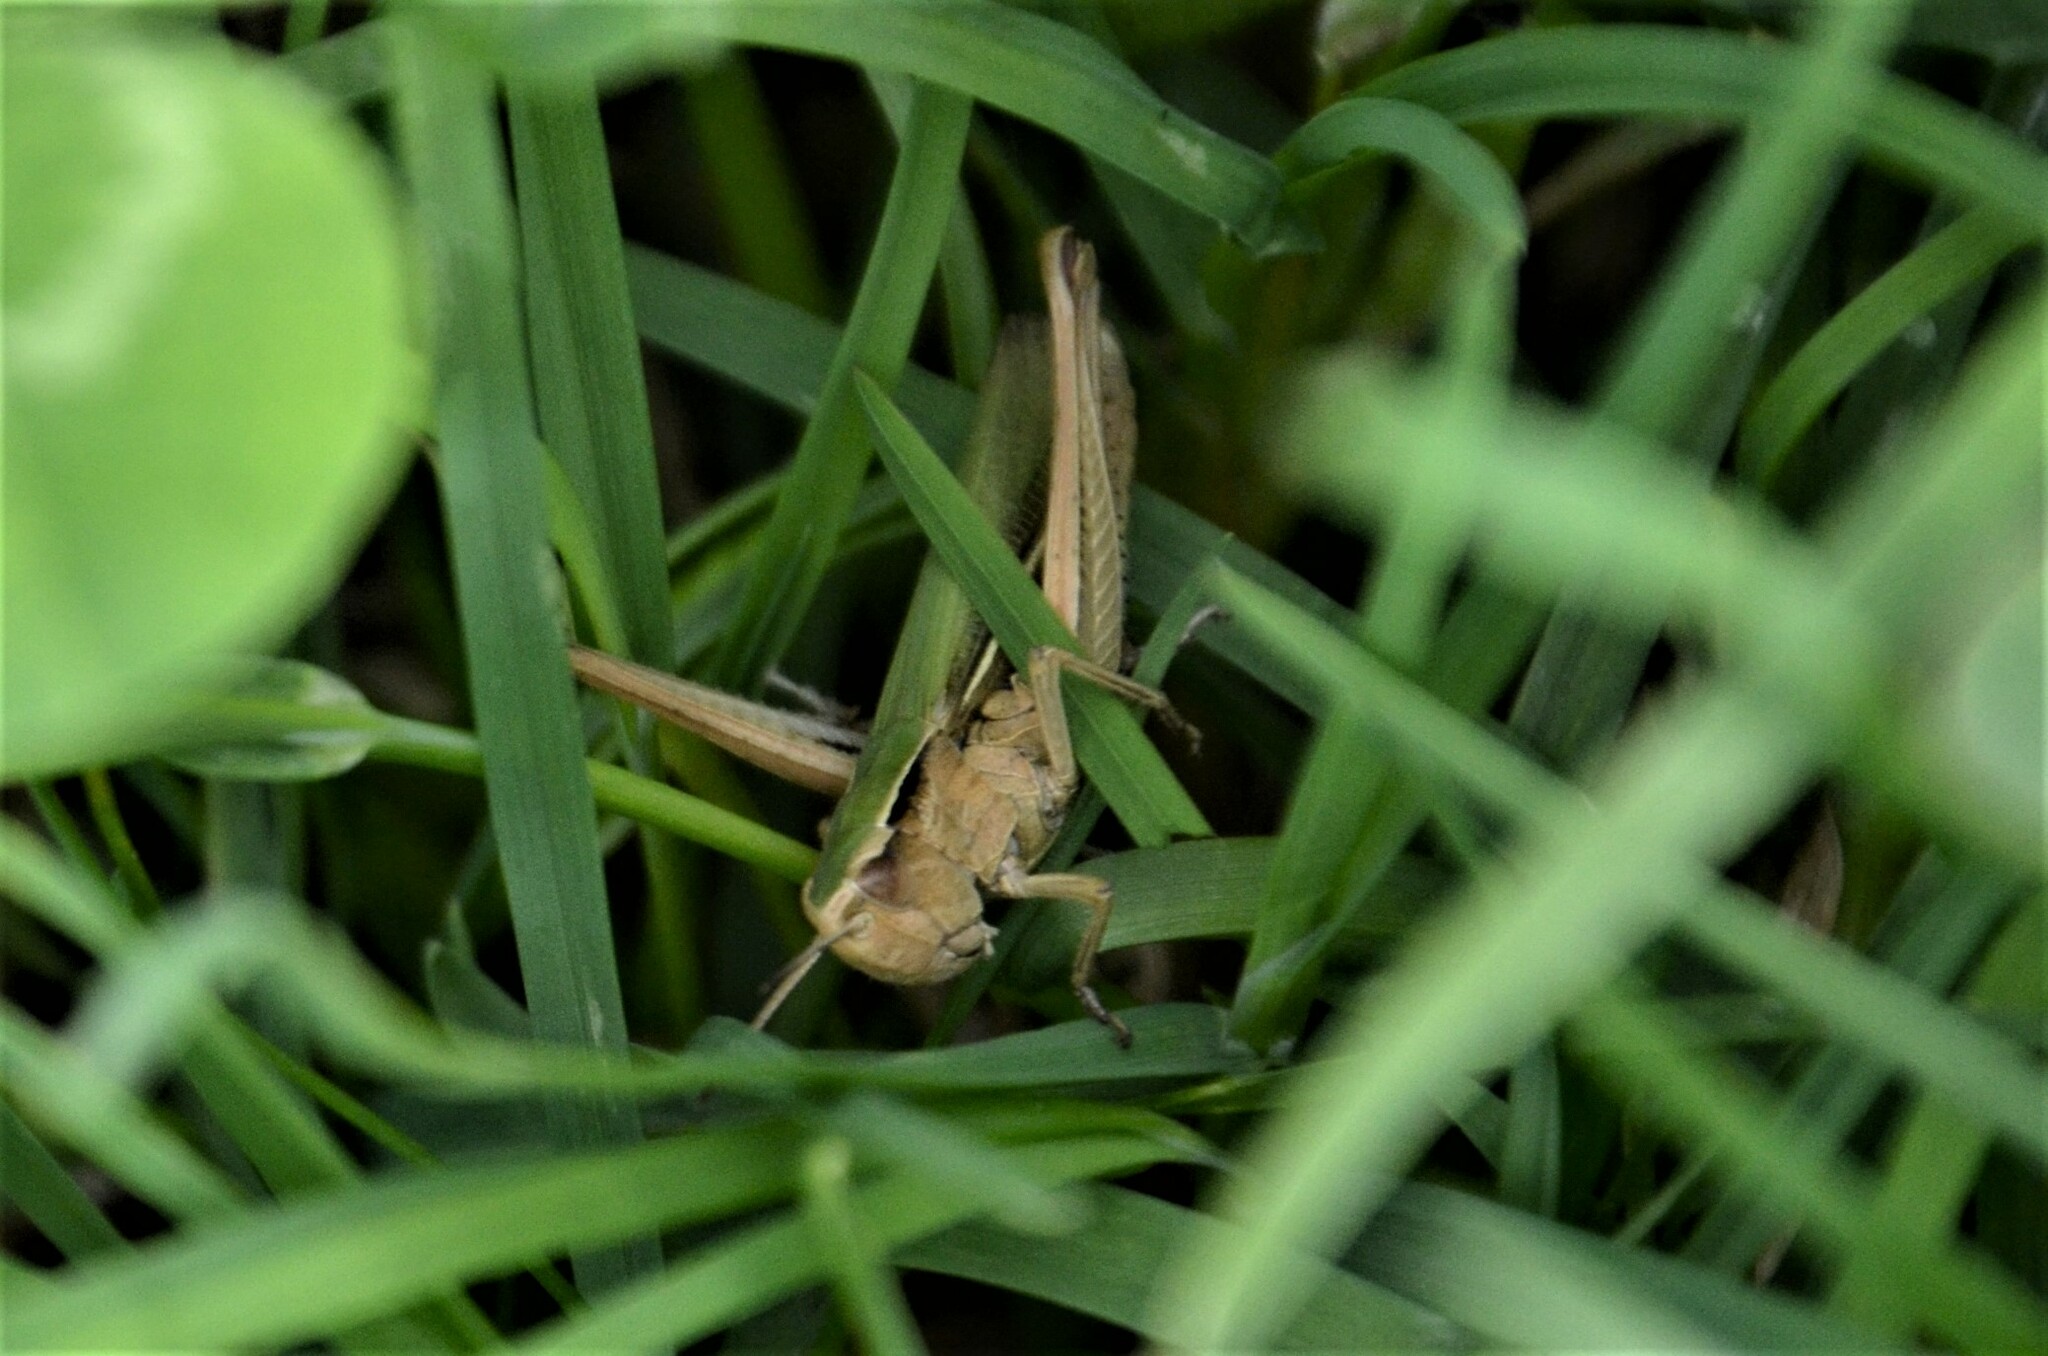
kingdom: Animalia
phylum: Arthropoda
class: Insecta
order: Orthoptera
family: Acrididae
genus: Chorthippus
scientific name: Chorthippus albomarginatus
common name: Lesser marsh grasshopper
